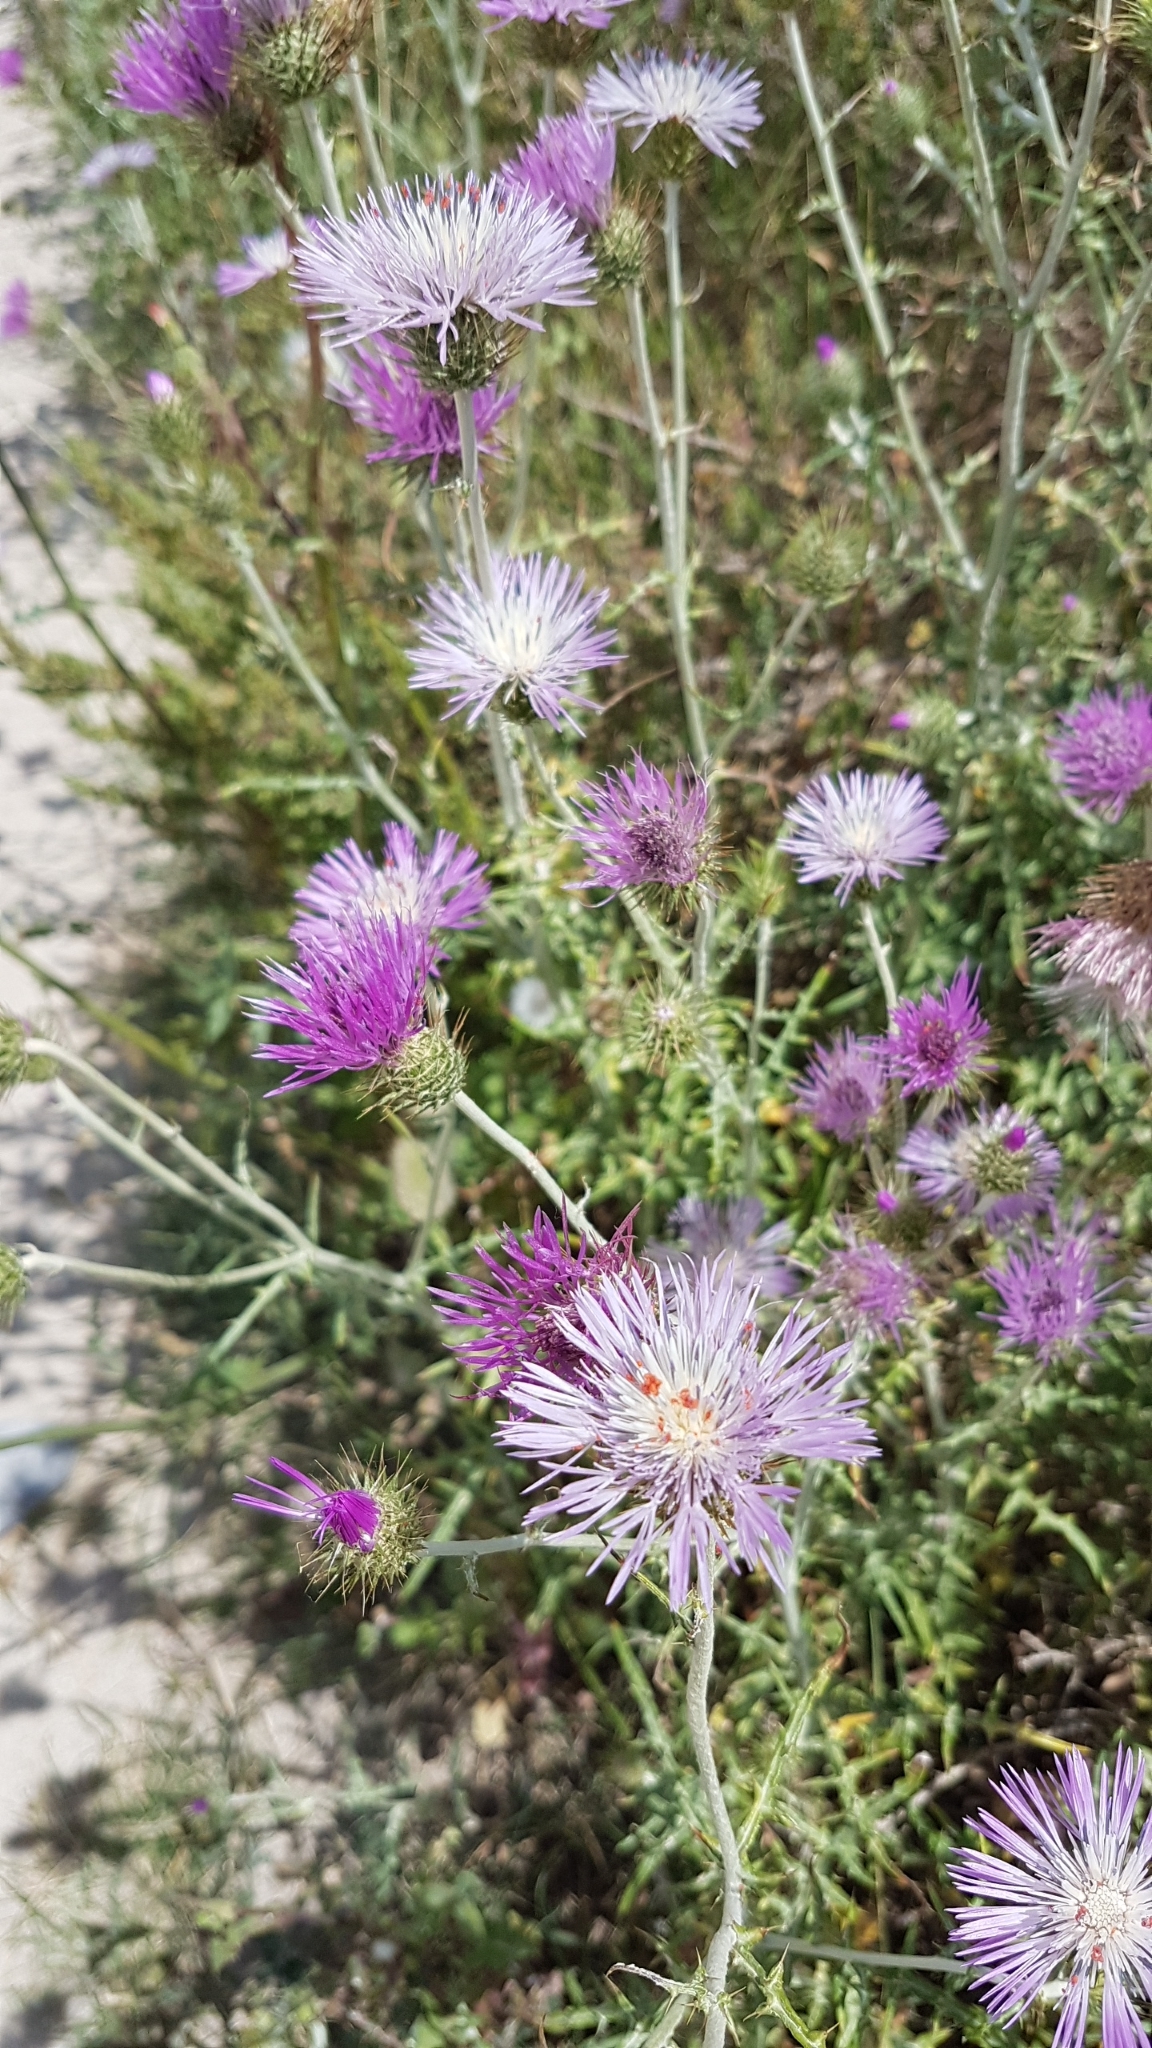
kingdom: Plantae
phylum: Tracheophyta
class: Magnoliopsida
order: Asterales
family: Asteraceae
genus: Galactites
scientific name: Galactites tomentosa
